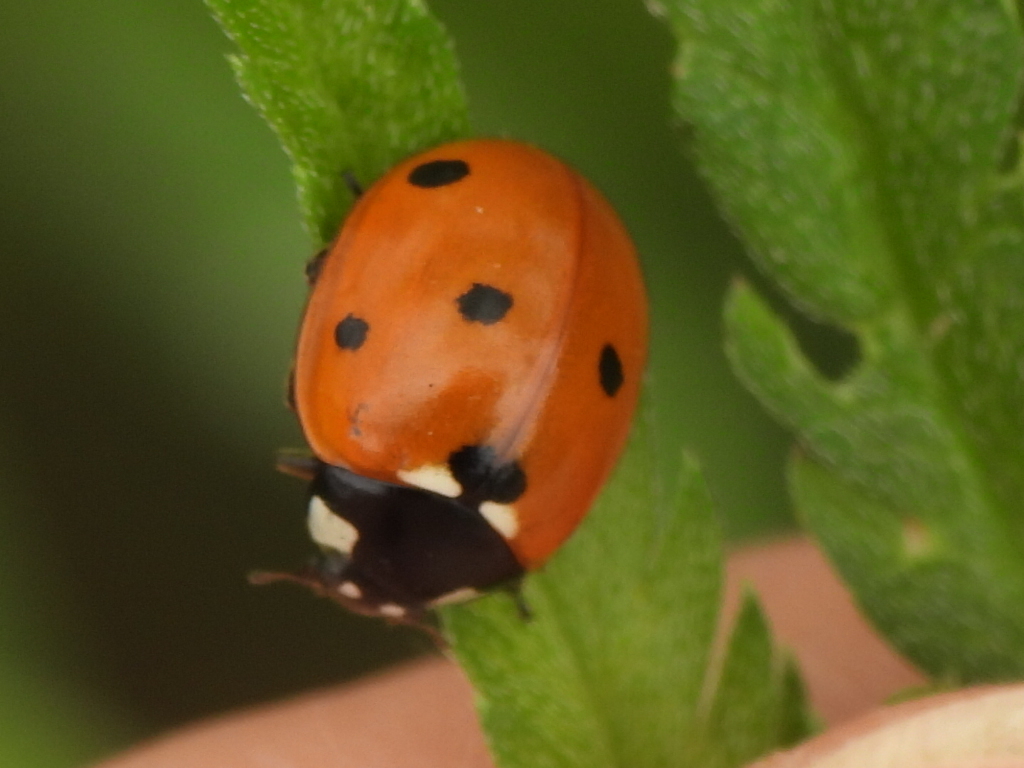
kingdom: Animalia
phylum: Arthropoda
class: Insecta
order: Coleoptera
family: Coccinellidae
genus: Coccinella
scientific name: Coccinella septempunctata
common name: Sevenspotted lady beetle
